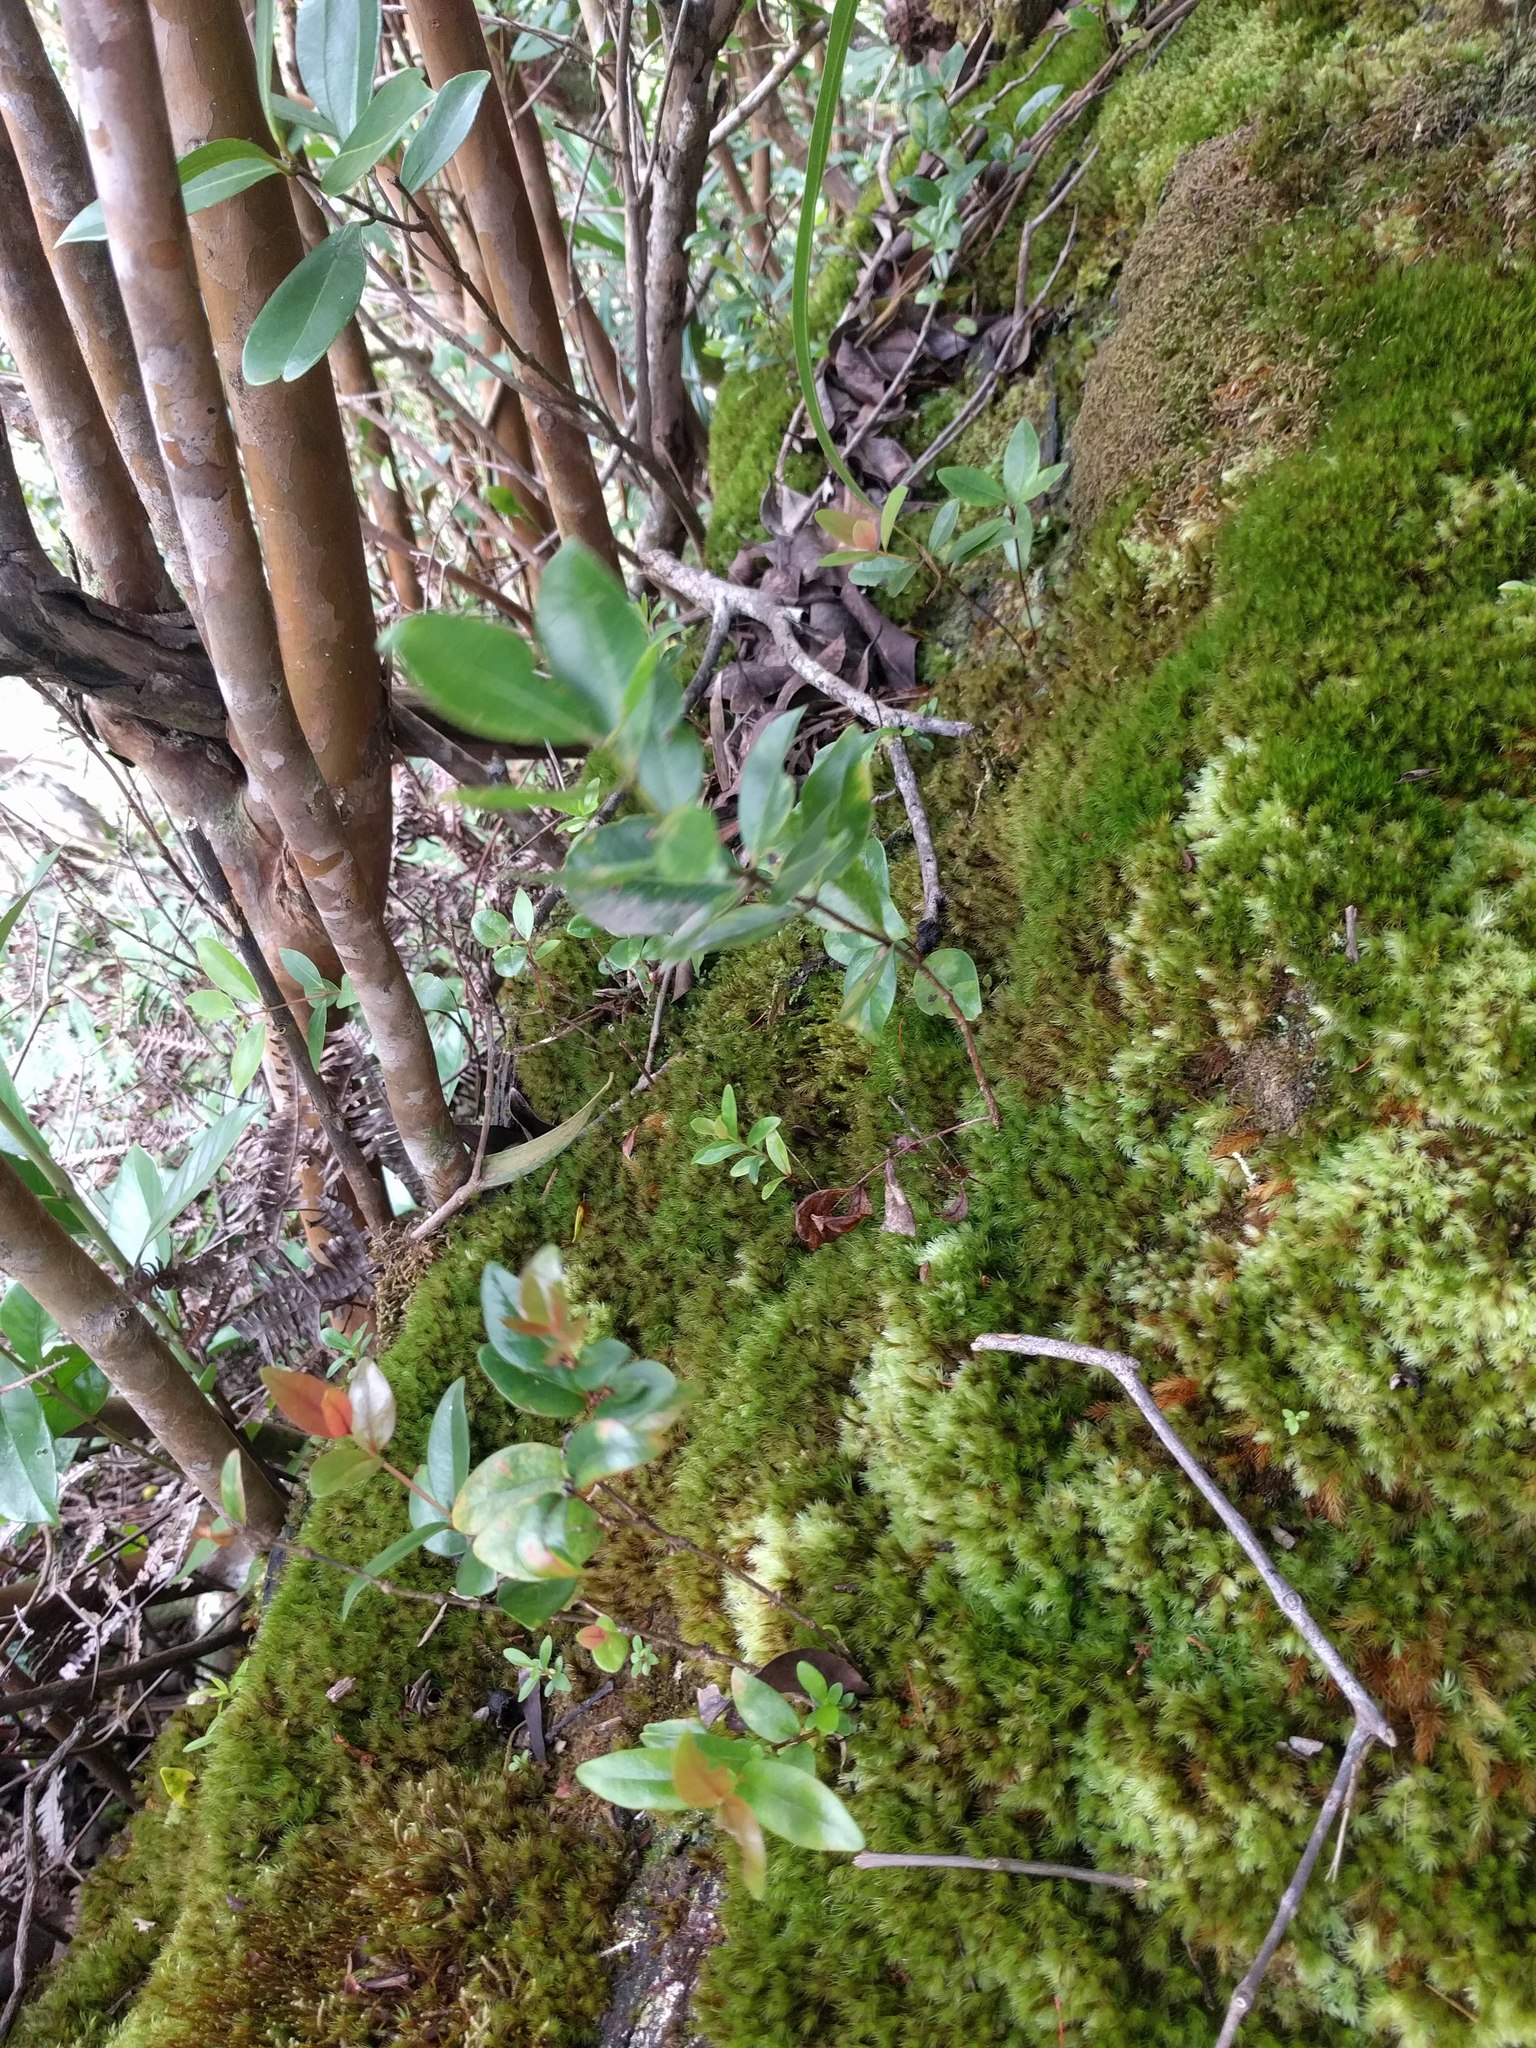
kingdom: Plantae
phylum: Tracheophyta
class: Magnoliopsida
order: Myrtales
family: Myrtaceae
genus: Metrosideros
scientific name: Metrosideros polymorpha
